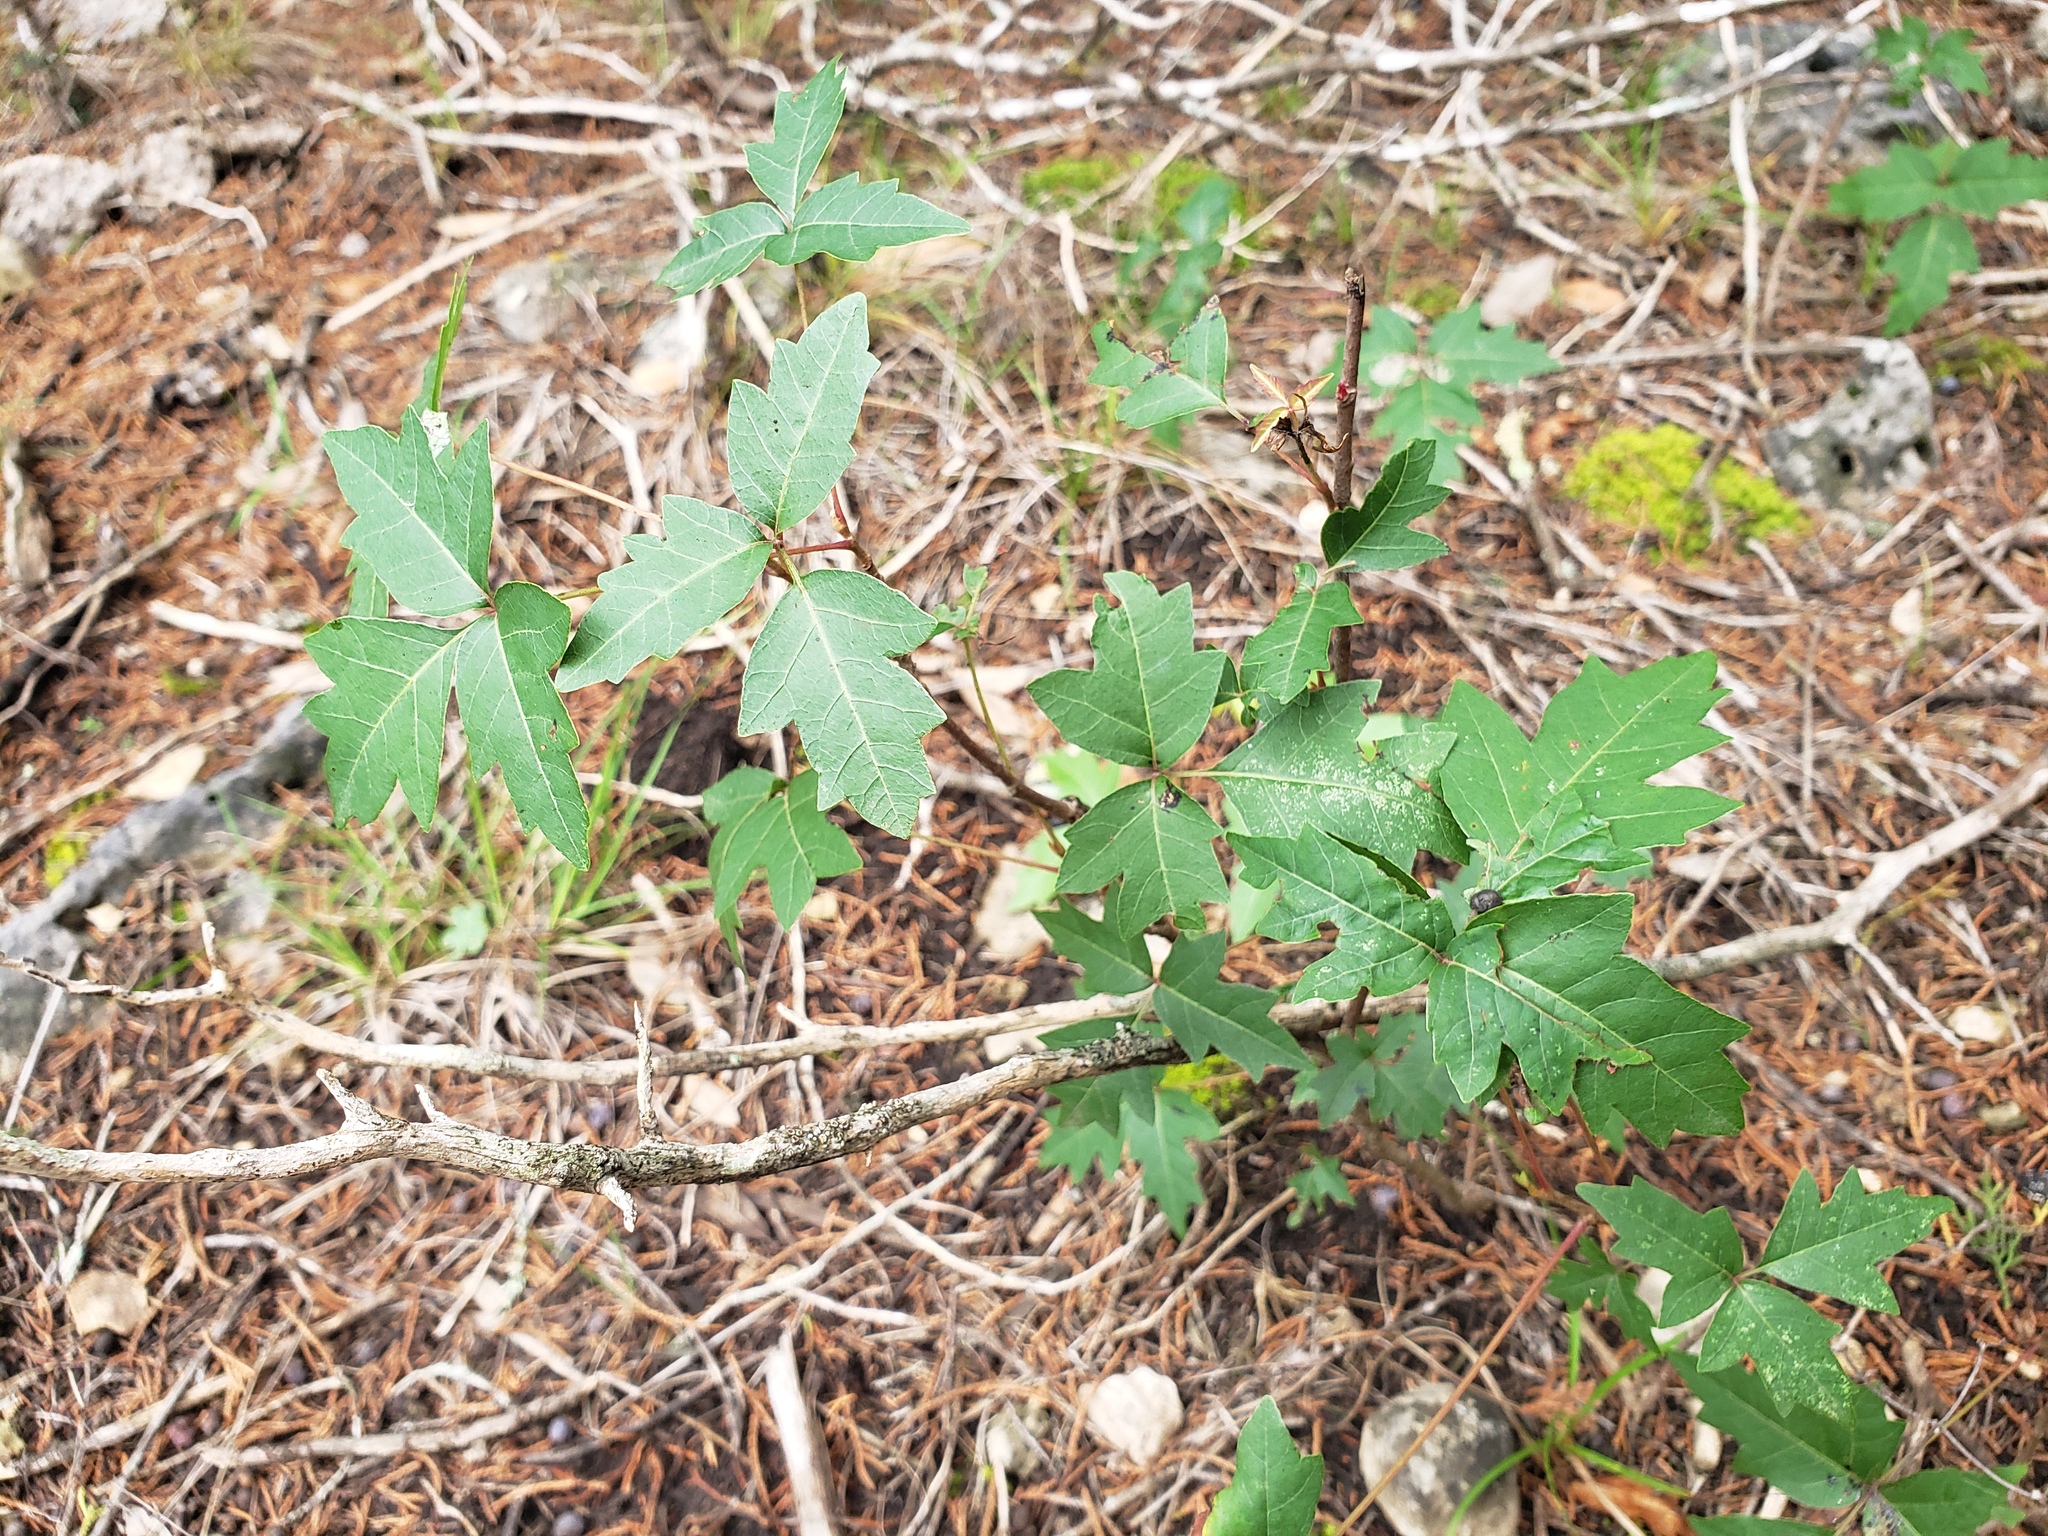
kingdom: Plantae
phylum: Tracheophyta
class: Magnoliopsida
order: Sapindales
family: Anacardiaceae
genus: Toxicodendron
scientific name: Toxicodendron radicans
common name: Poison ivy
